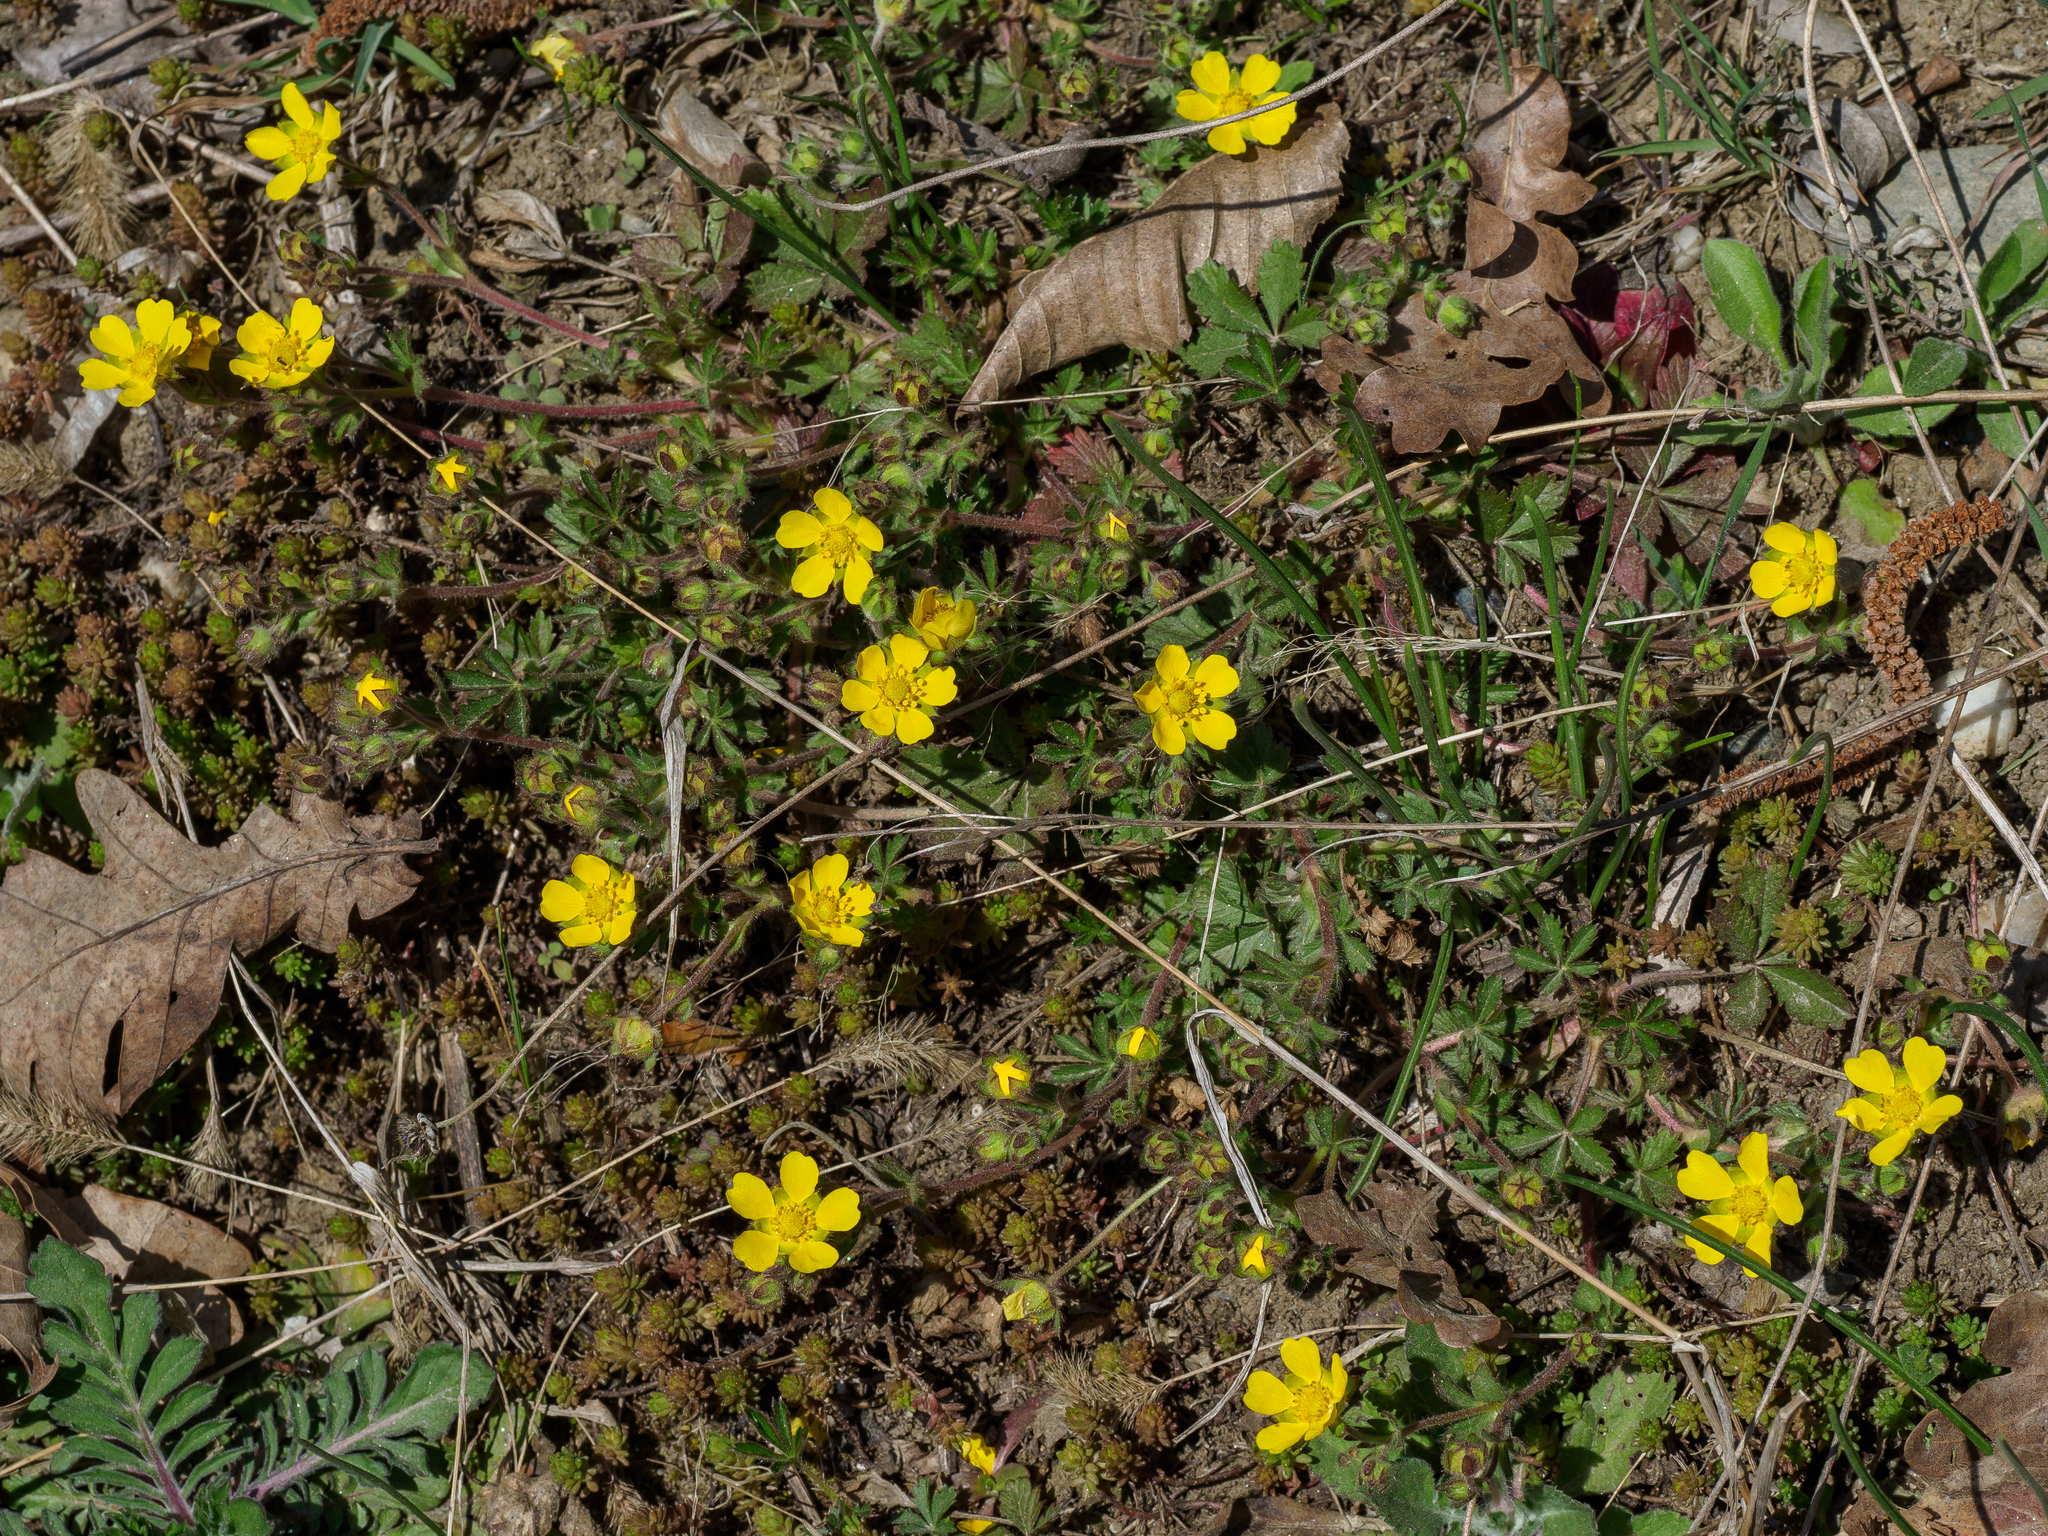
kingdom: Plantae
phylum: Tracheophyta
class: Magnoliopsida
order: Rosales
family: Rosaceae
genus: Potentilla
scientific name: Potentilla heptaphylla
